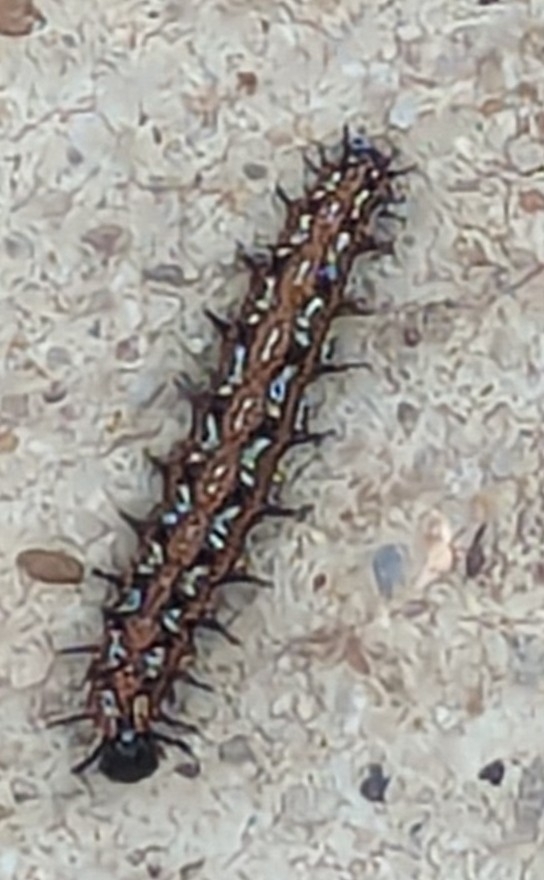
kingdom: Animalia
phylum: Arthropoda
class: Insecta
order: Lepidoptera
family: Nymphalidae
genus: Euptoieta
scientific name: Euptoieta claudia
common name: Variegated fritillary
